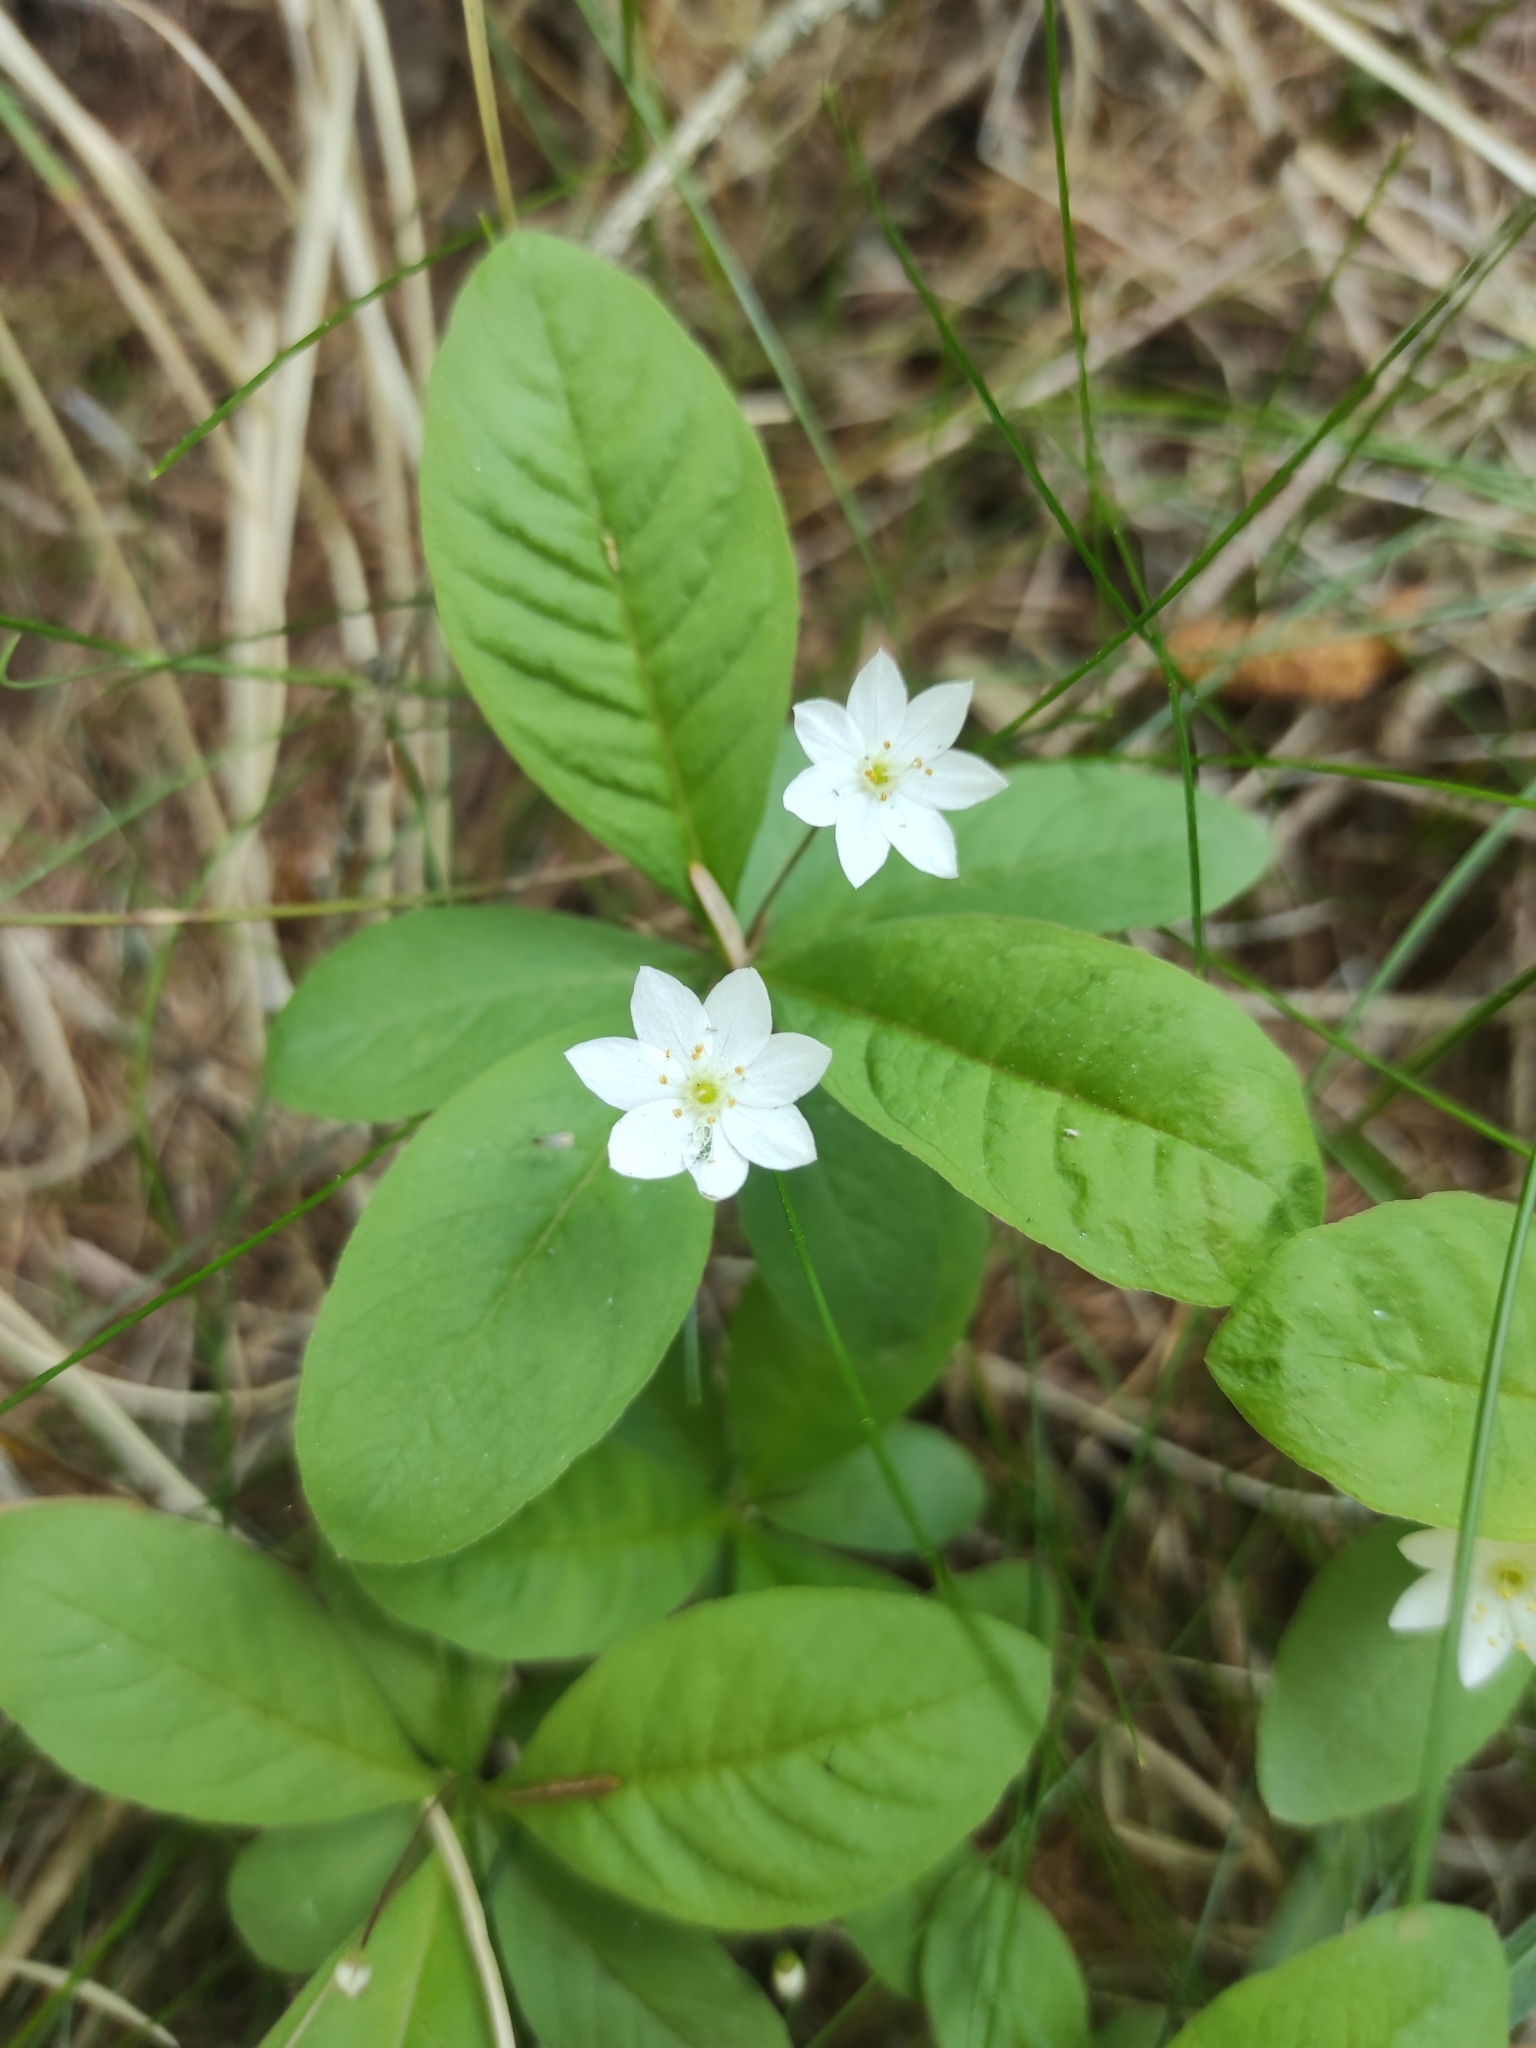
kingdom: Plantae
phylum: Tracheophyta
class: Magnoliopsida
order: Ericales
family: Primulaceae
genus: Lysimachia
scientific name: Lysimachia europaea
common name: Arctic starflower
